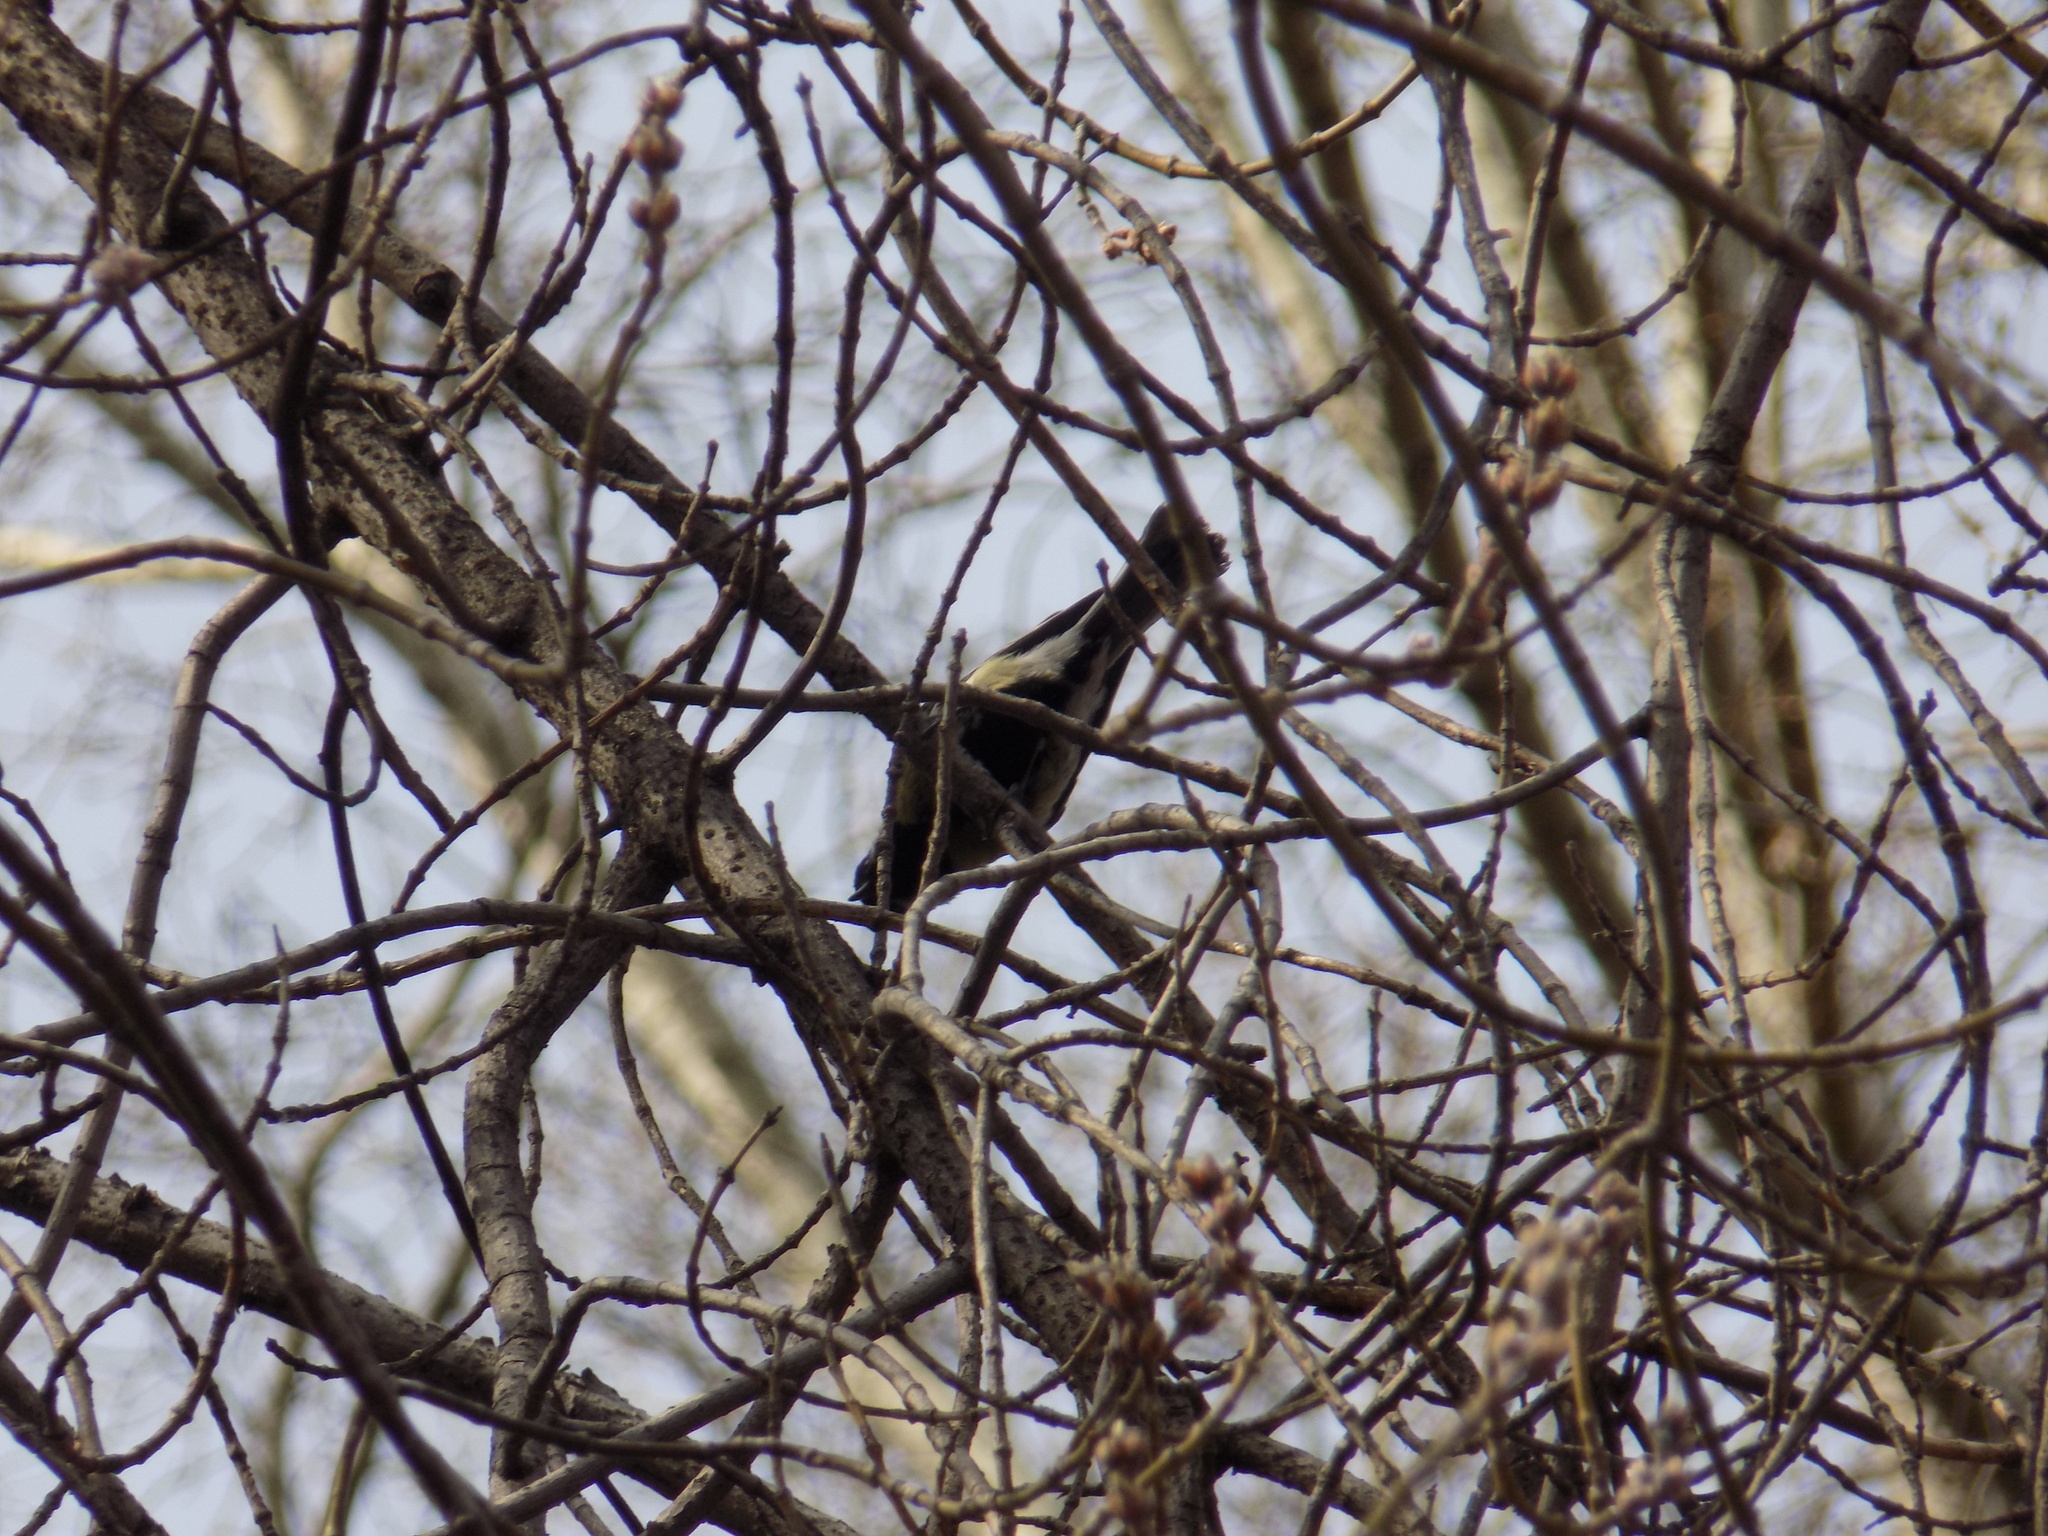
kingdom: Animalia
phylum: Chordata
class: Aves
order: Passeriformes
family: Paridae
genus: Parus
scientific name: Parus major
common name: Great tit
